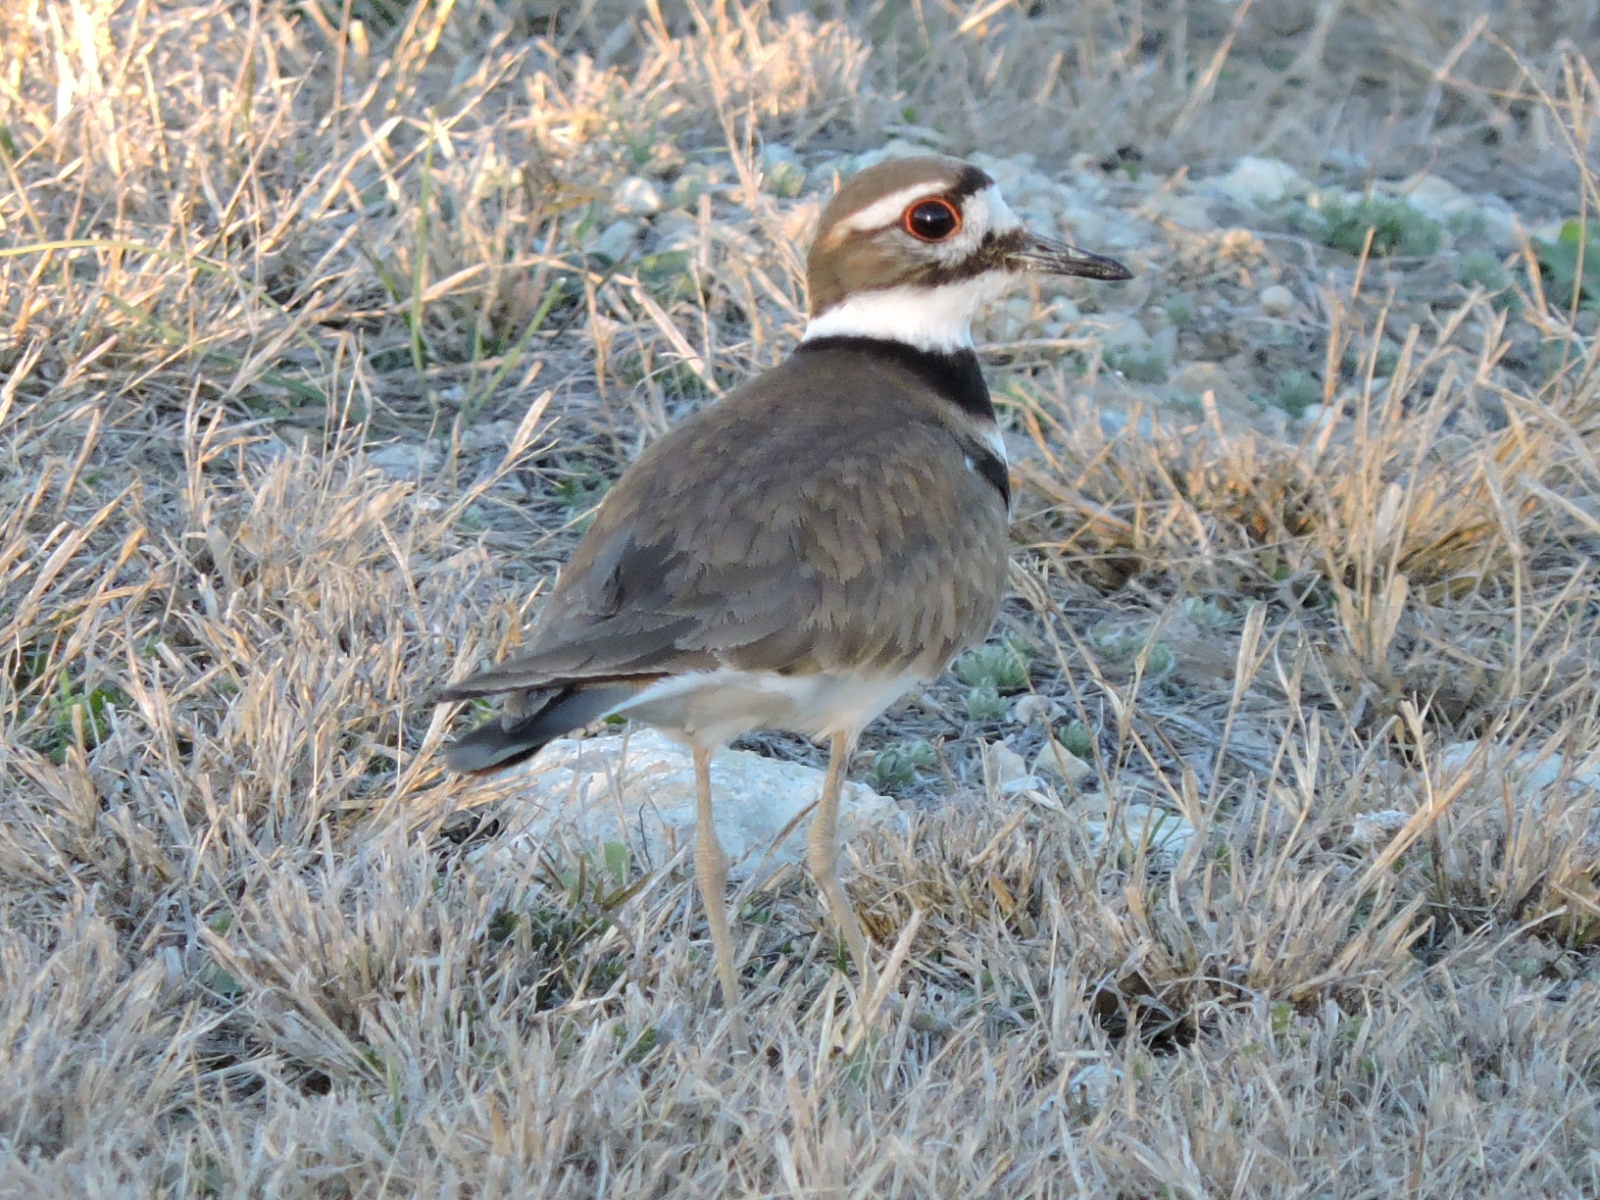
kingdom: Animalia
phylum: Chordata
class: Aves
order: Charadriiformes
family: Charadriidae
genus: Charadrius
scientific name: Charadrius vociferus
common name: Killdeer
